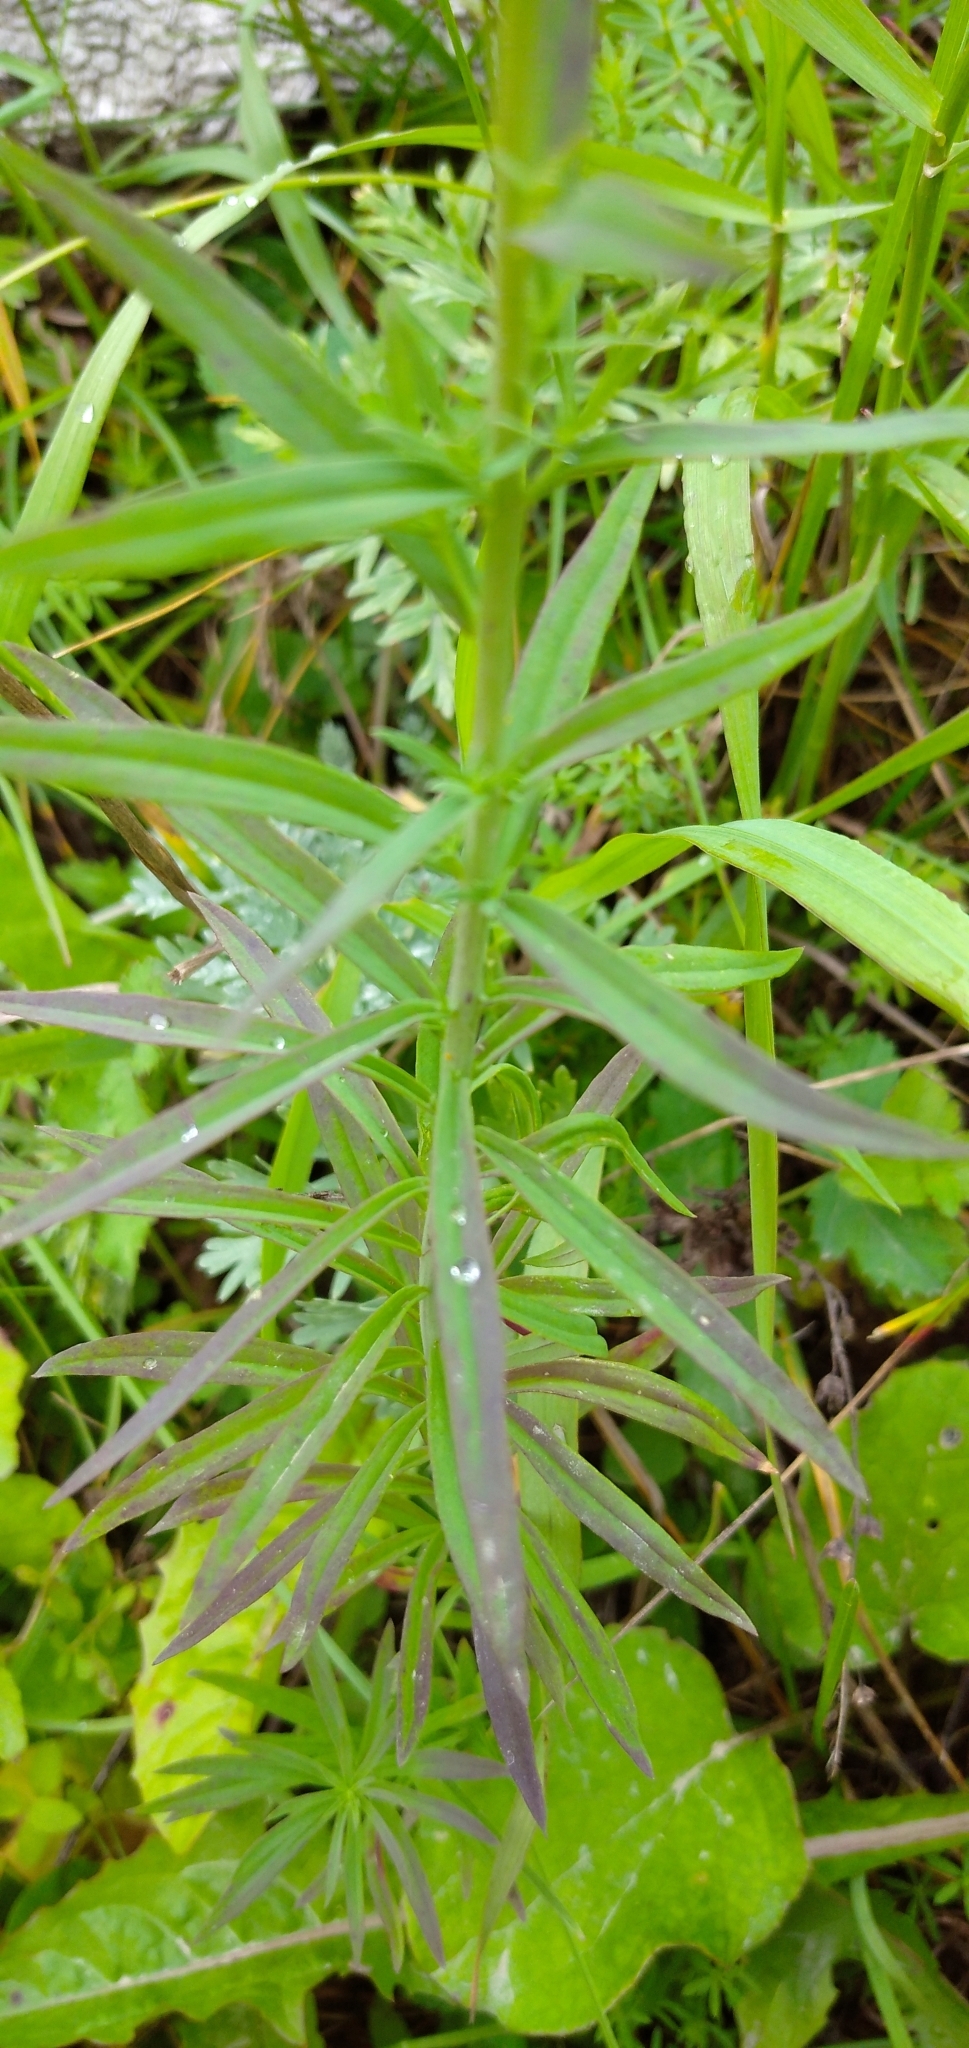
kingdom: Plantae
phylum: Tracheophyta
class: Magnoliopsida
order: Lamiales
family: Plantaginaceae
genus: Linaria
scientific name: Linaria vulgaris
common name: Butter and eggs
